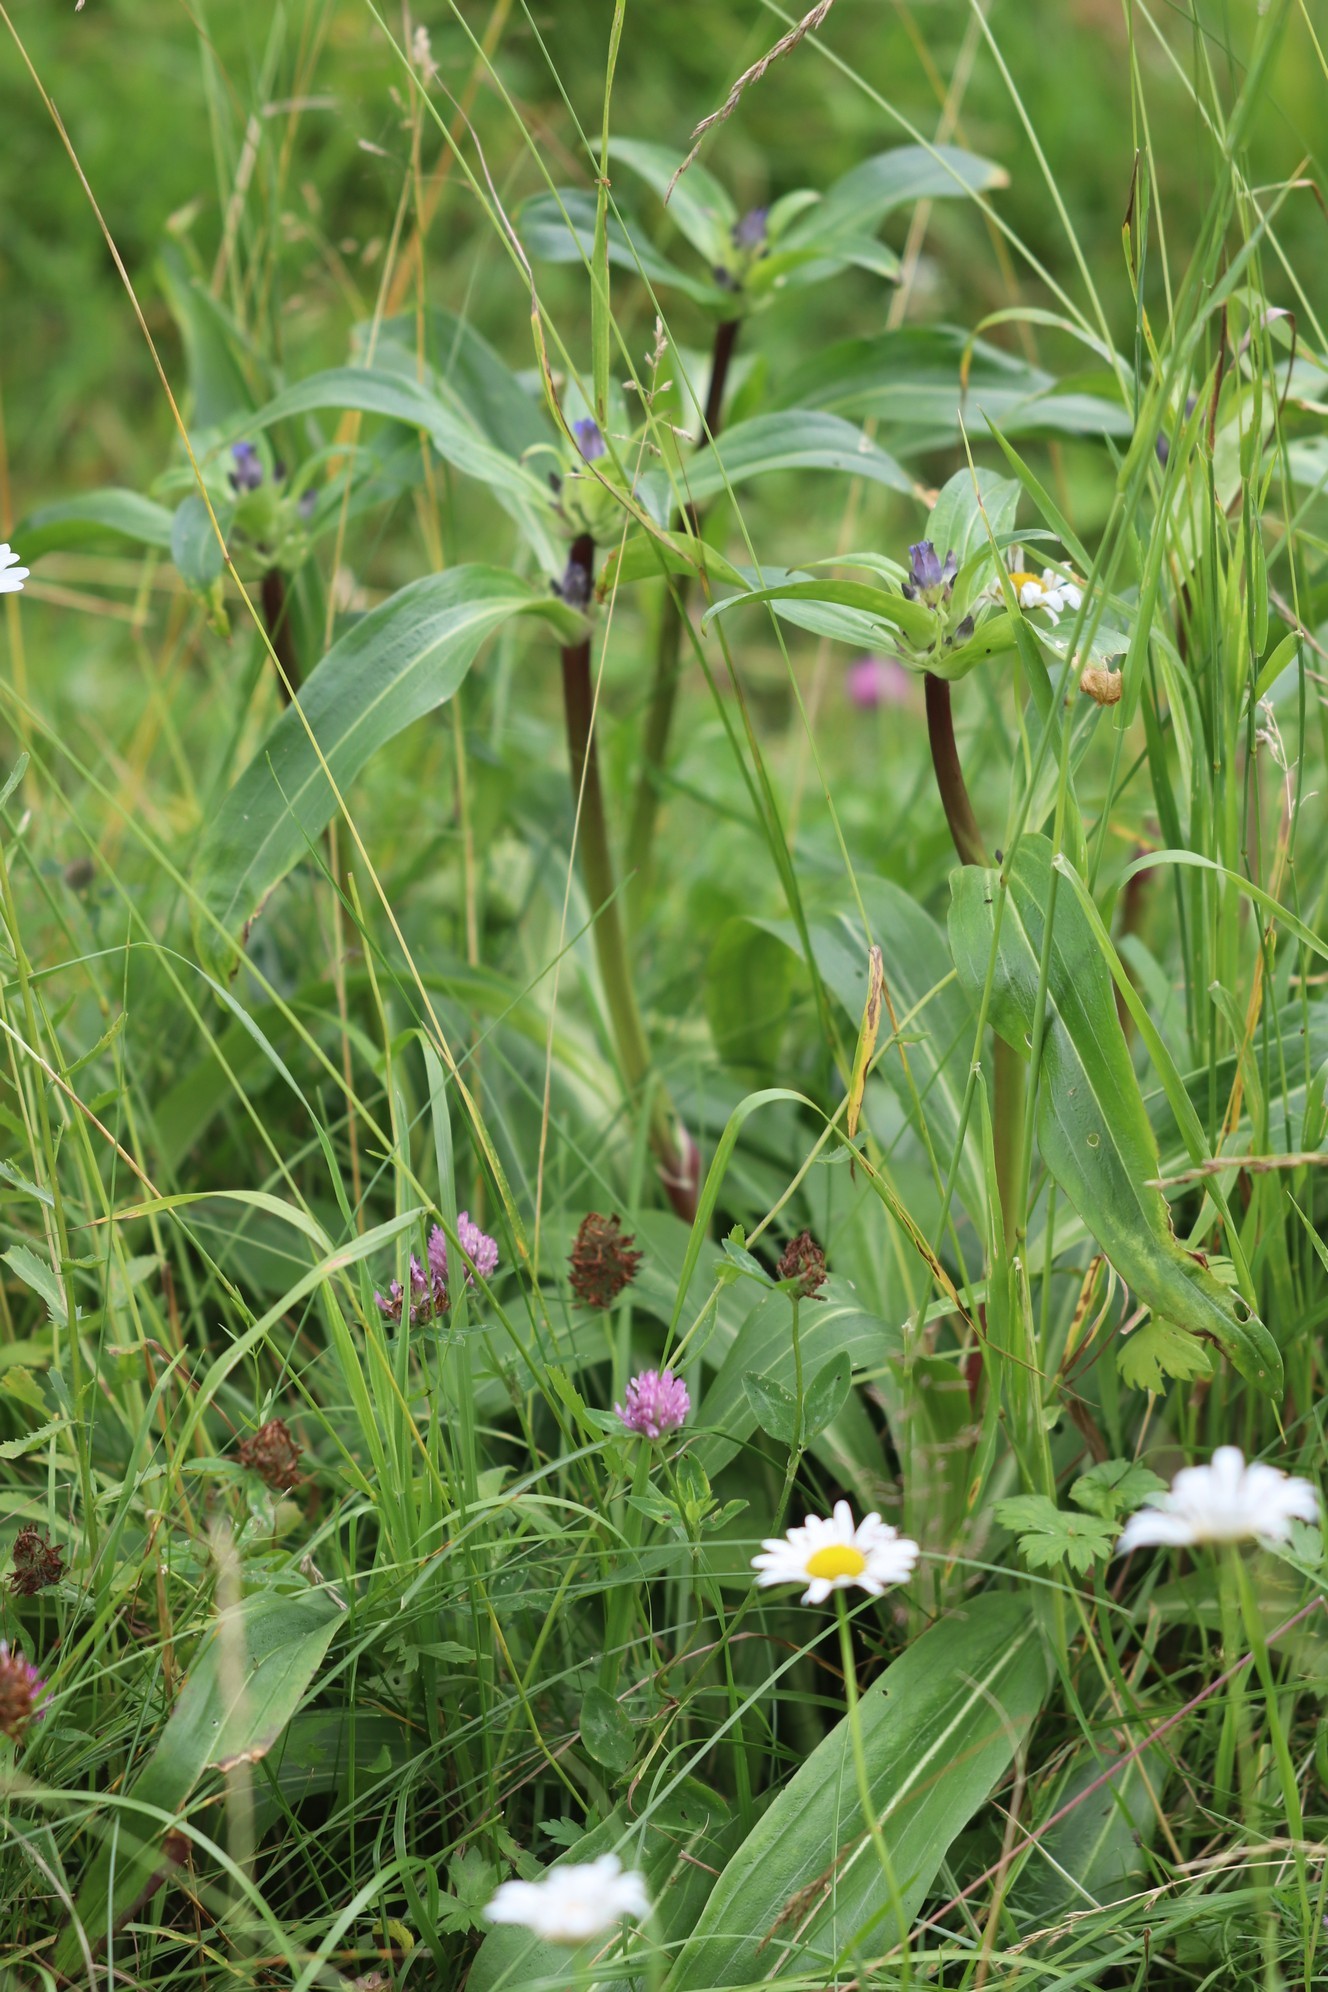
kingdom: Plantae
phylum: Tracheophyta
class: Magnoliopsida
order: Gentianales
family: Gentianaceae
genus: Gentiana
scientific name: Gentiana macrophylla
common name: Large-leaf gentian
